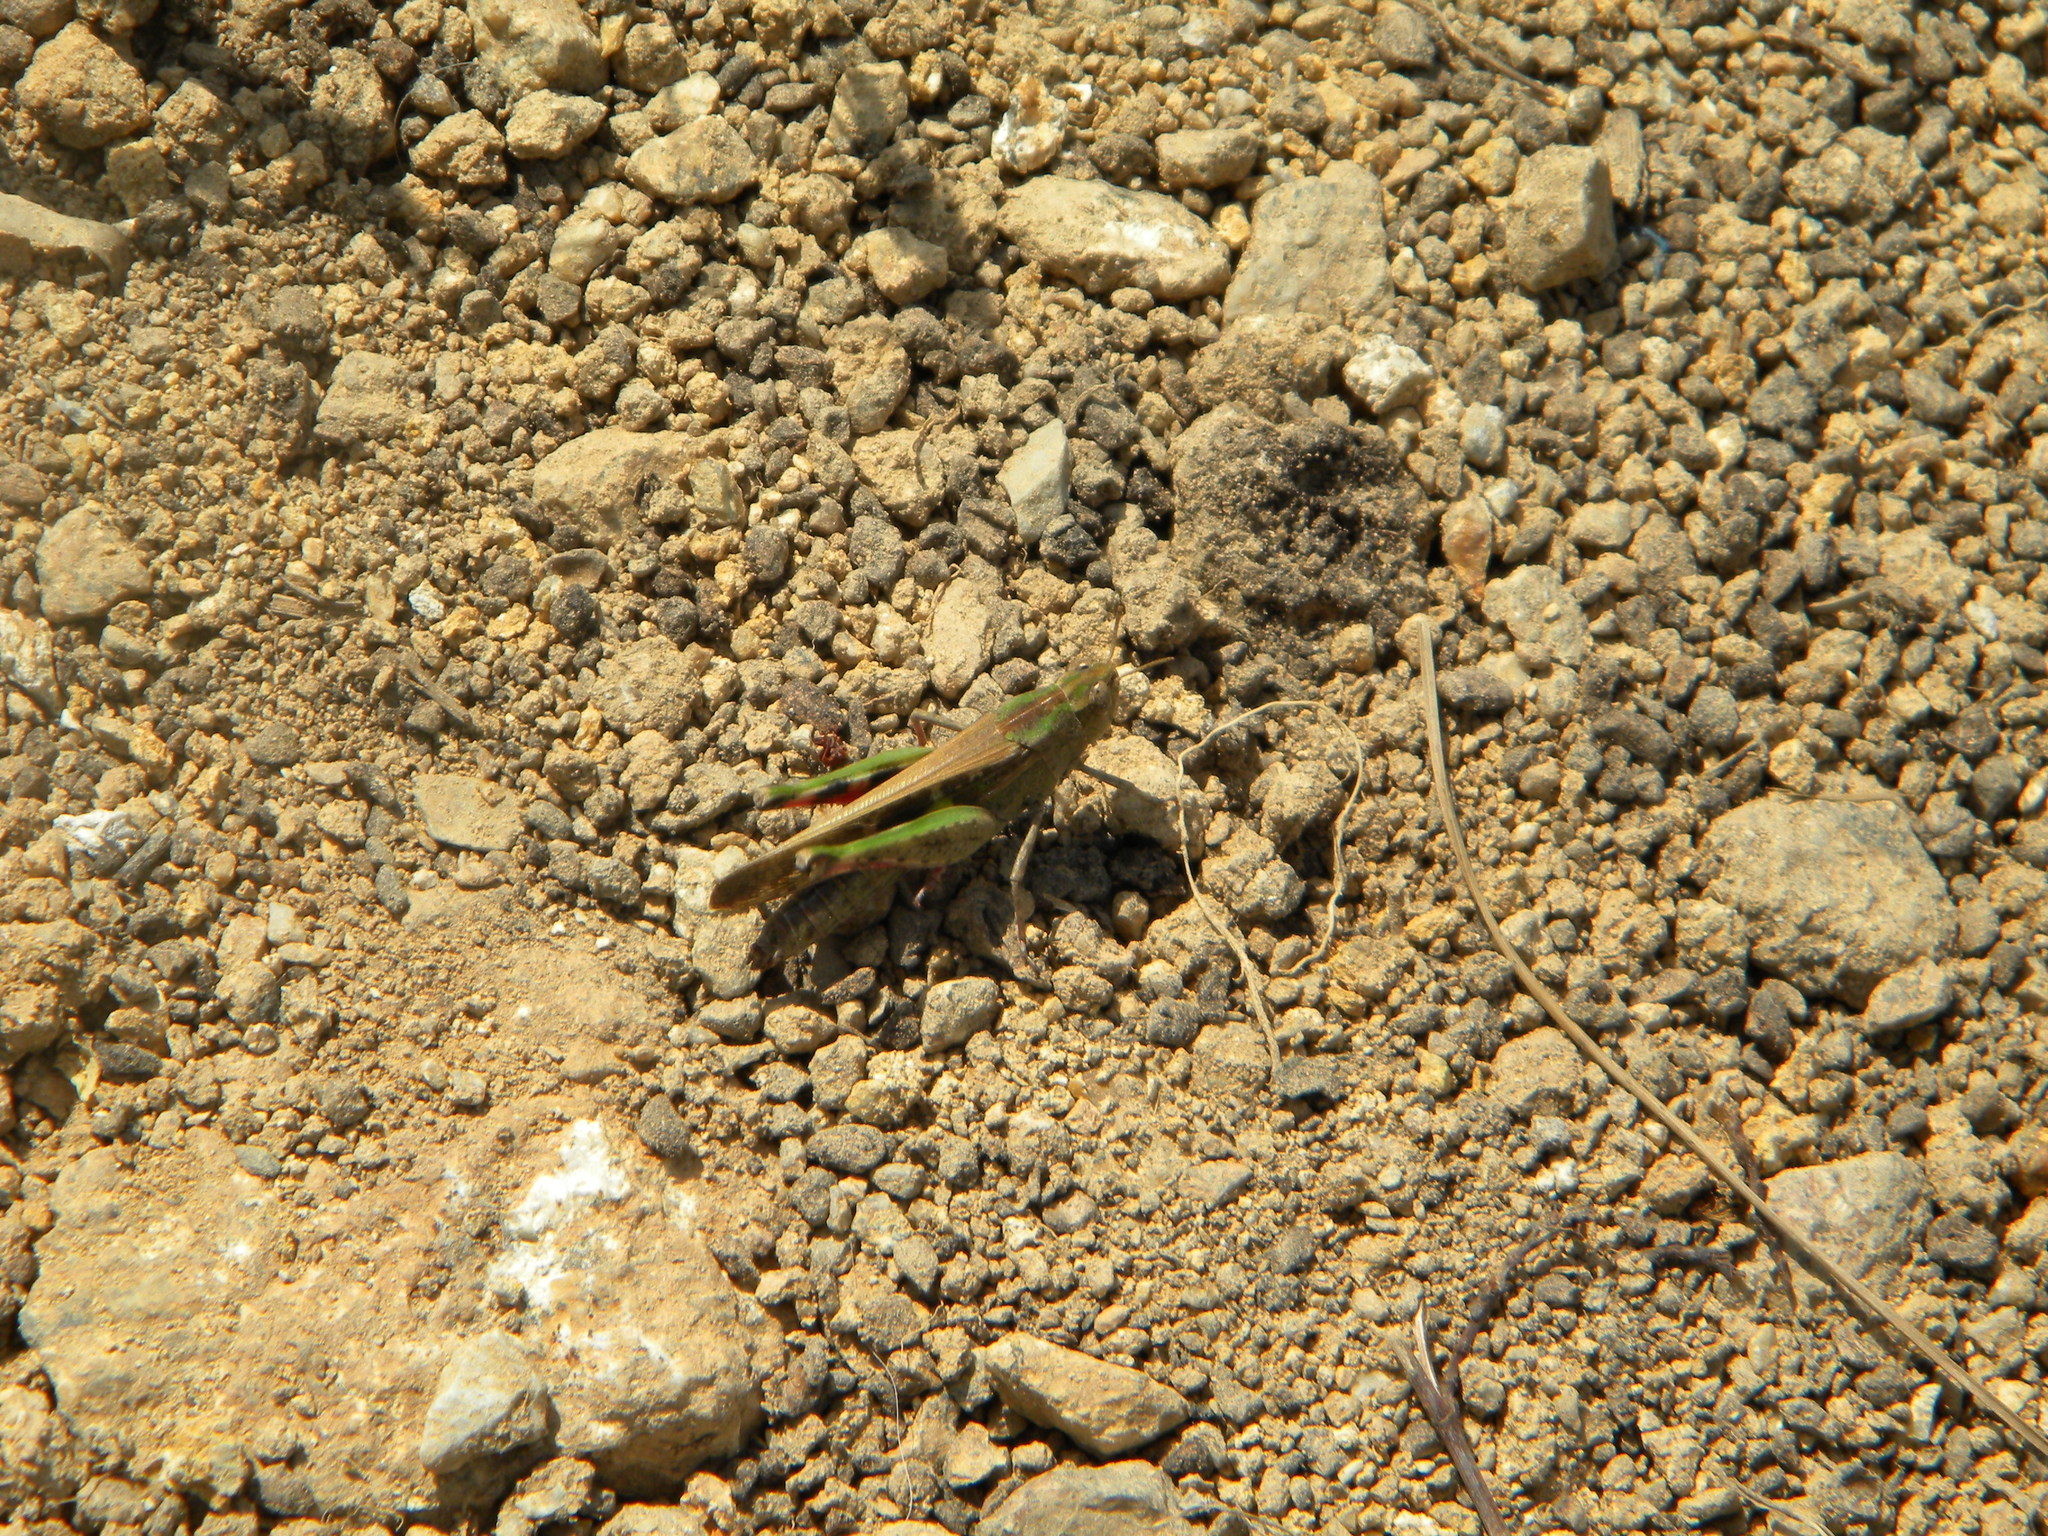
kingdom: Animalia
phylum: Arthropoda
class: Insecta
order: Orthoptera
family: Acrididae
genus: Aiolopus
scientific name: Aiolopus strepens
